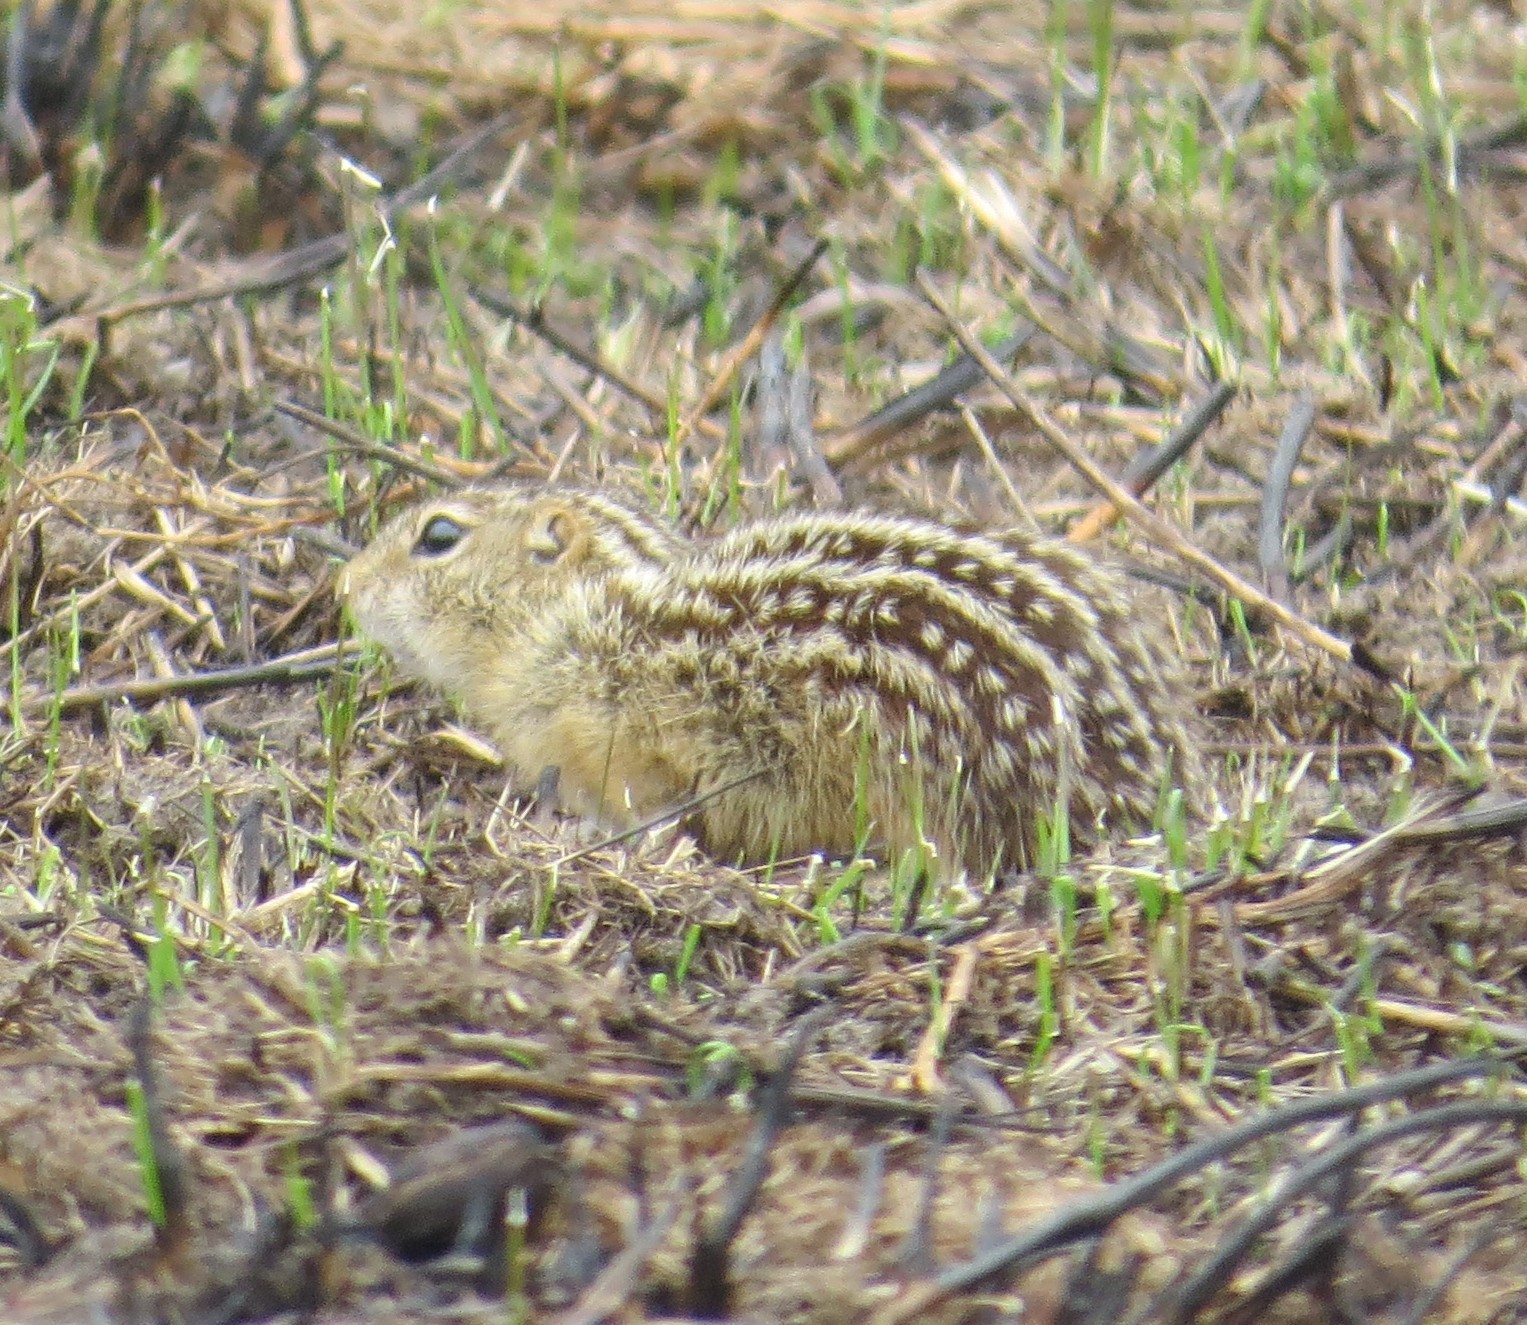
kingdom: Animalia
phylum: Chordata
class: Mammalia
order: Rodentia
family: Sciuridae
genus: Ictidomys
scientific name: Ictidomys tridecemlineatus
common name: Thirteen-lined ground squirrel
